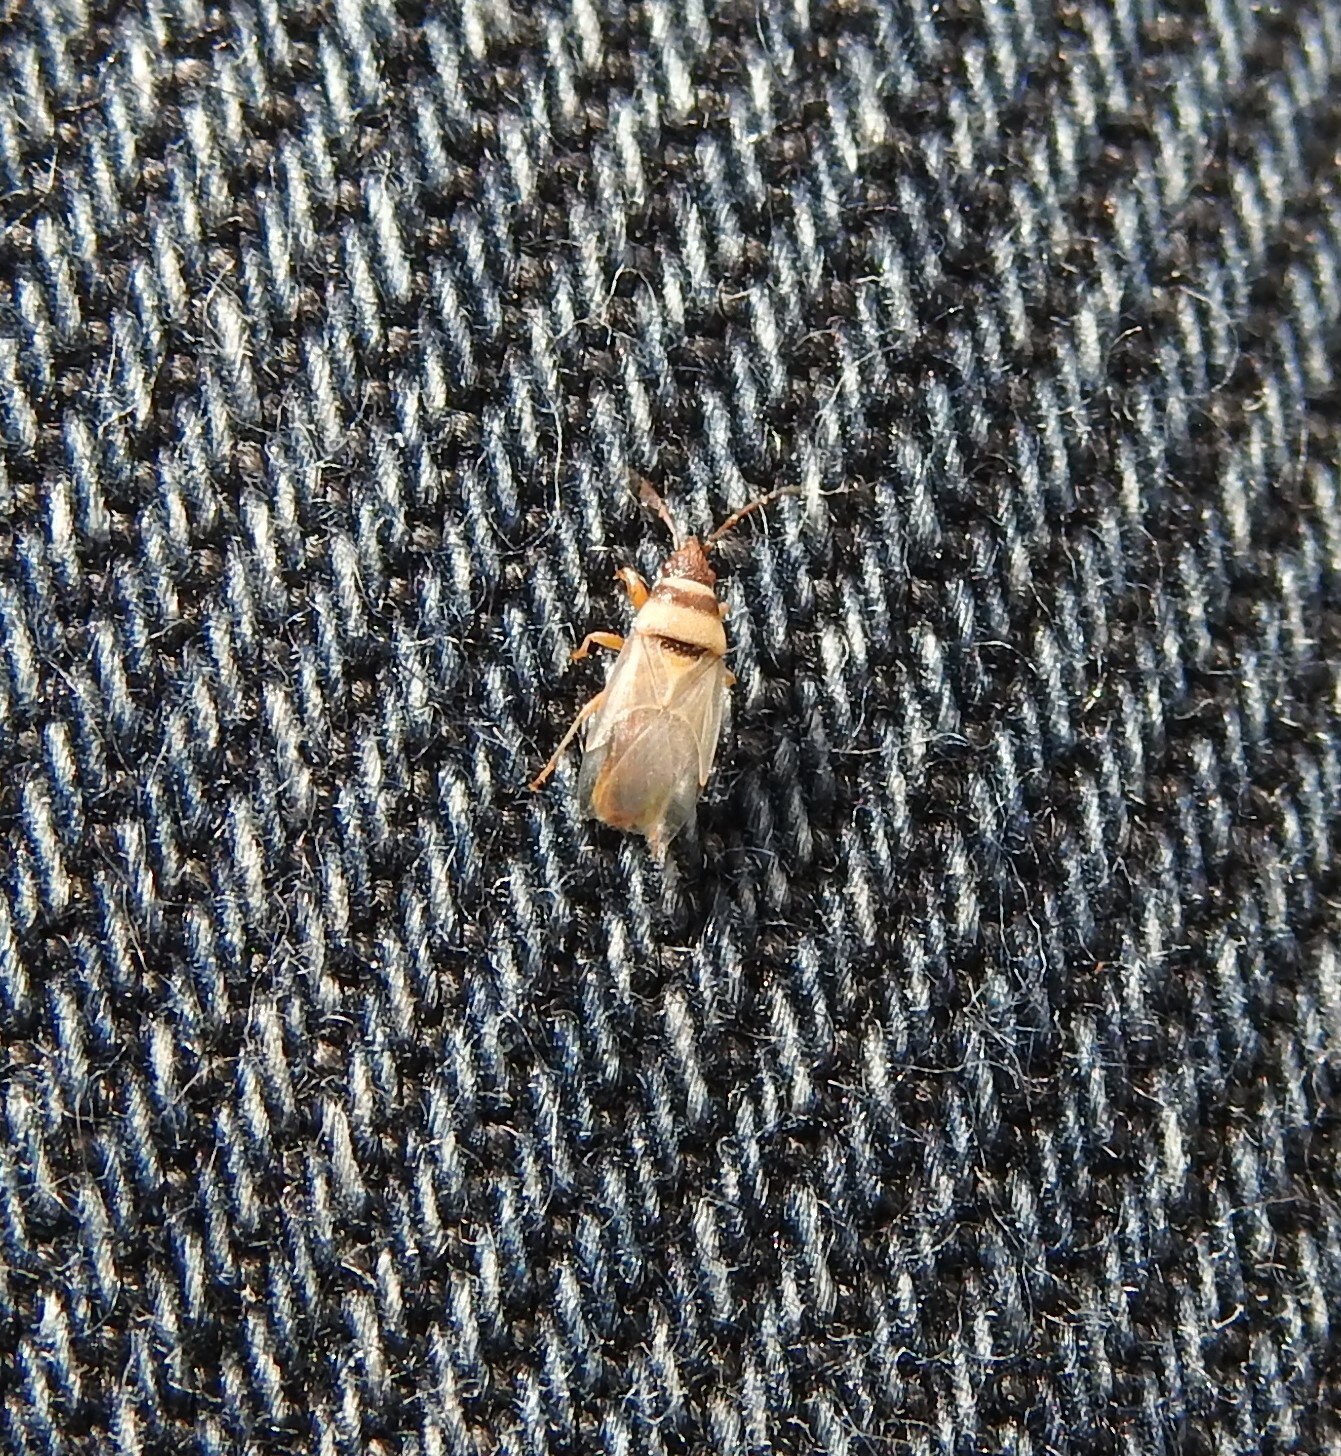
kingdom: Animalia
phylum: Arthropoda
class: Insecta
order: Hemiptera
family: Oxycarenidae
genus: Oxycarenus
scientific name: Oxycarenus pallens
